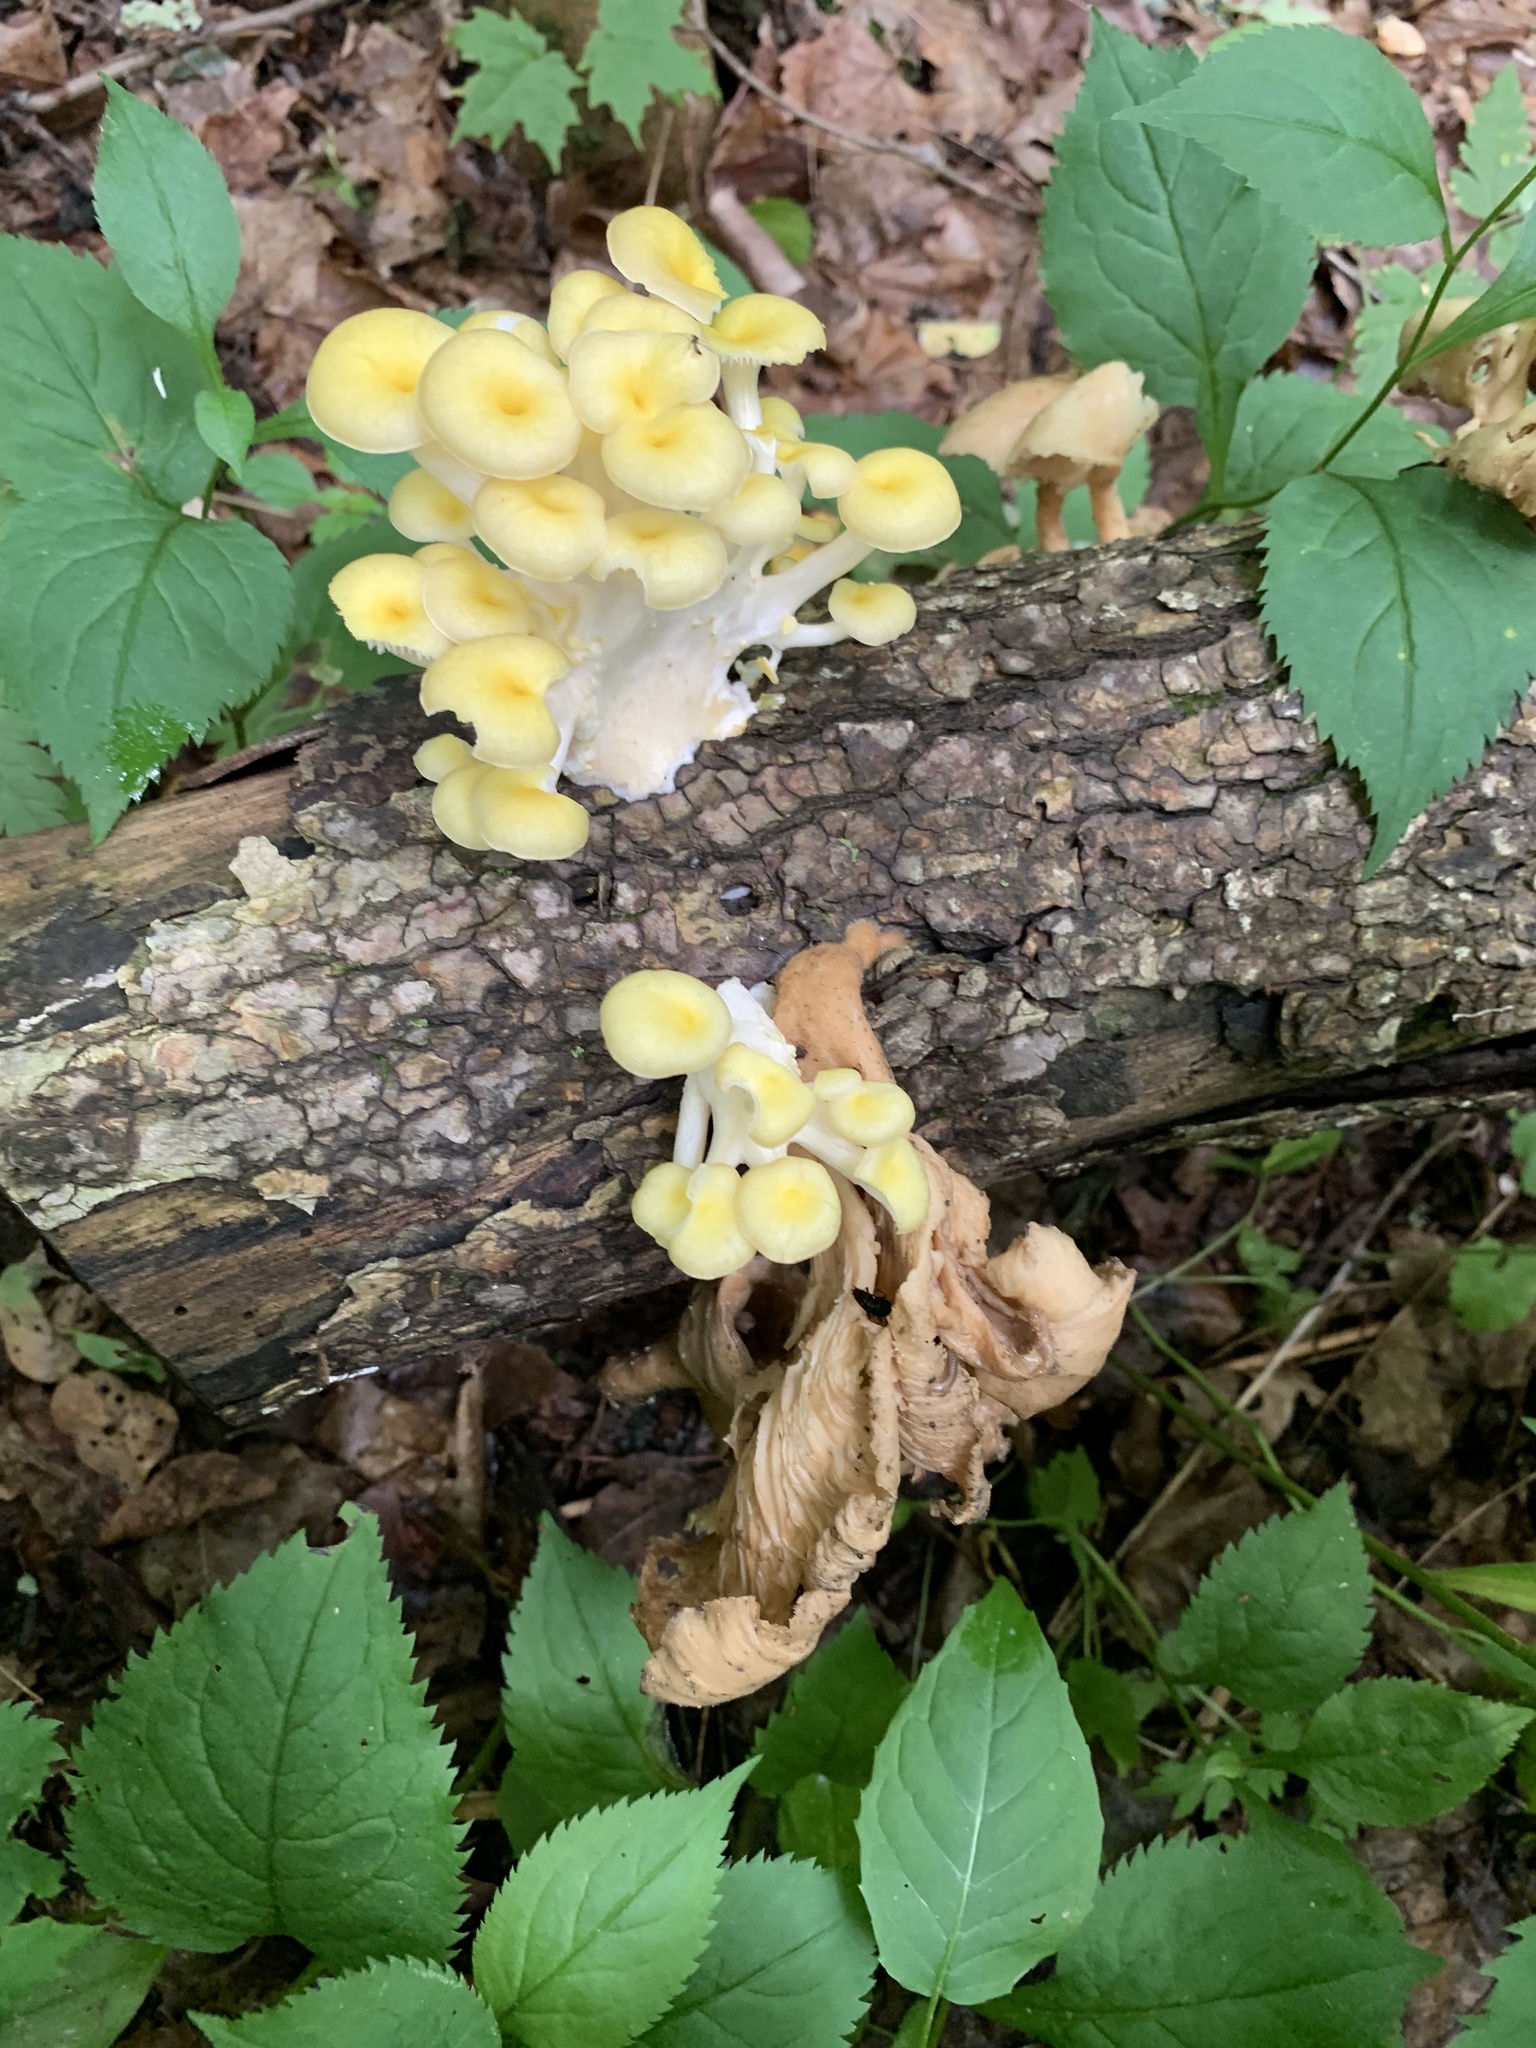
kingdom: Fungi
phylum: Basidiomycota
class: Agaricomycetes
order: Agaricales
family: Pleurotaceae
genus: Pleurotus
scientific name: Pleurotus citrinopileatus
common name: Golden oyster mushroom
